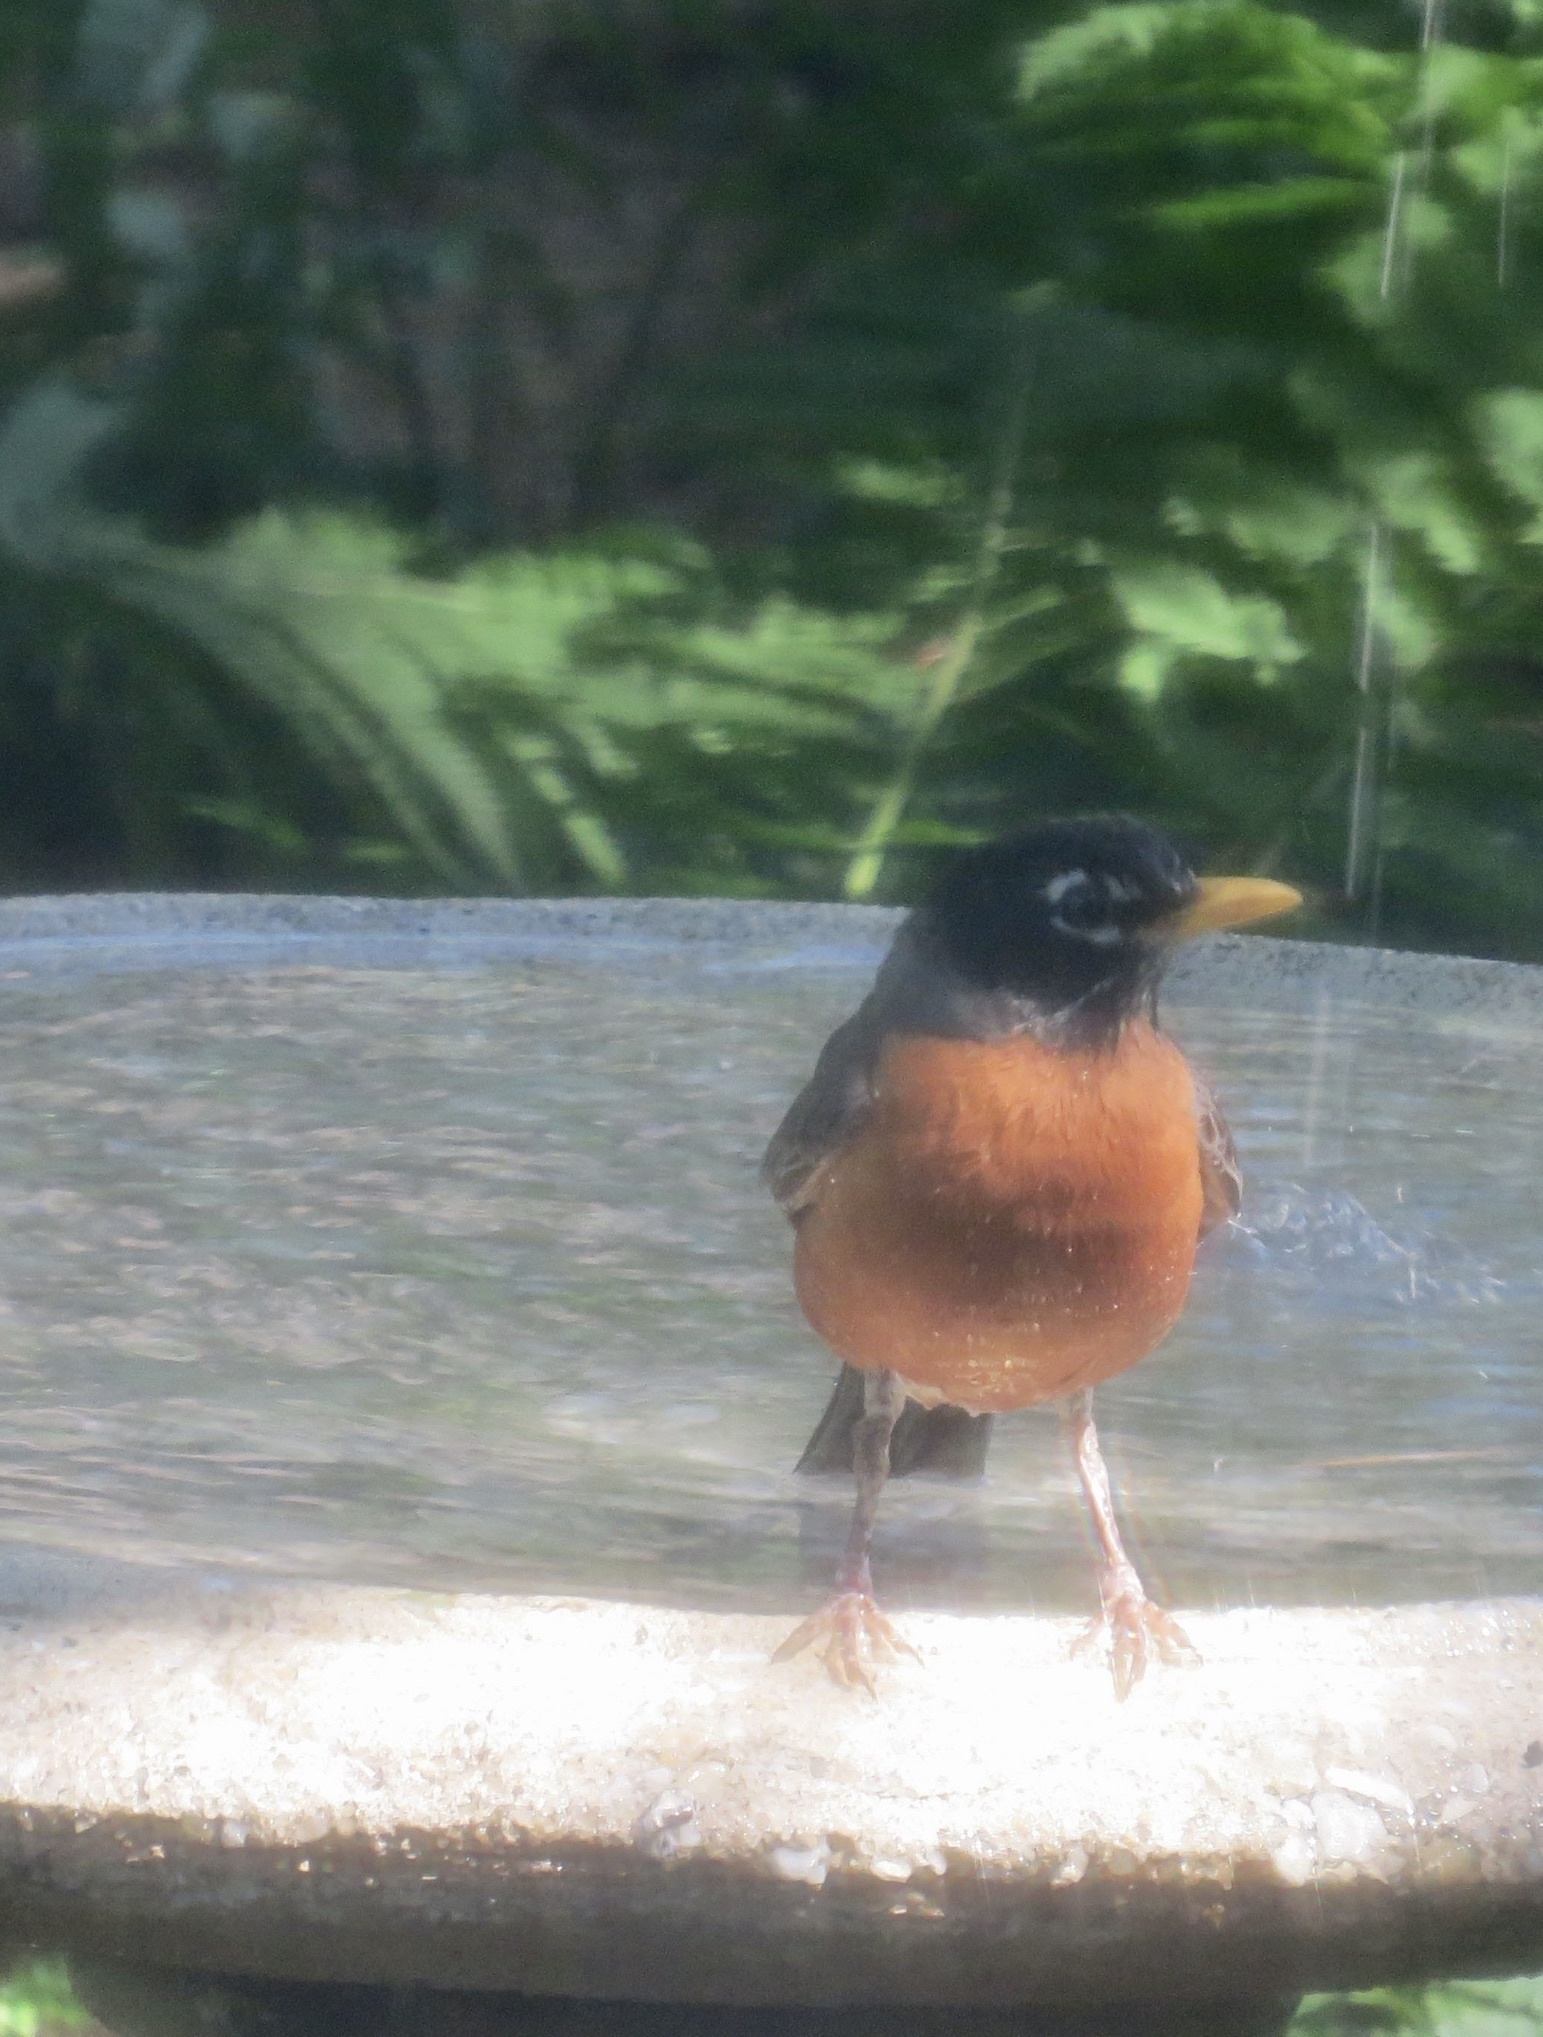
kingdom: Animalia
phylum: Chordata
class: Aves
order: Passeriformes
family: Turdidae
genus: Turdus
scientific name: Turdus migratorius
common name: American robin
